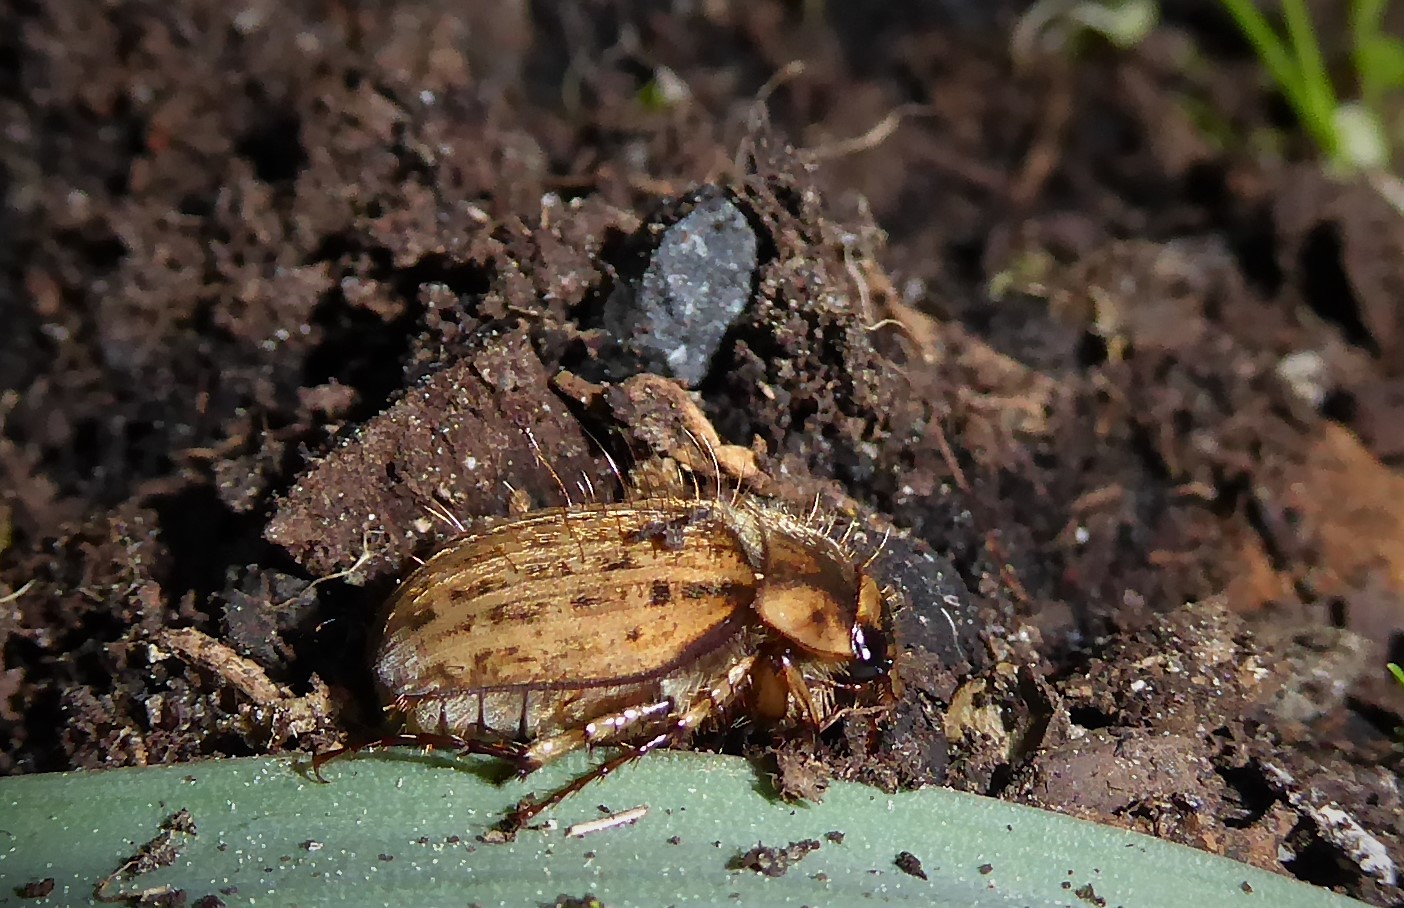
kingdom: Animalia
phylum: Arthropoda
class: Insecta
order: Coleoptera
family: Scarabaeidae
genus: Odontria
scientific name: Odontria striata
